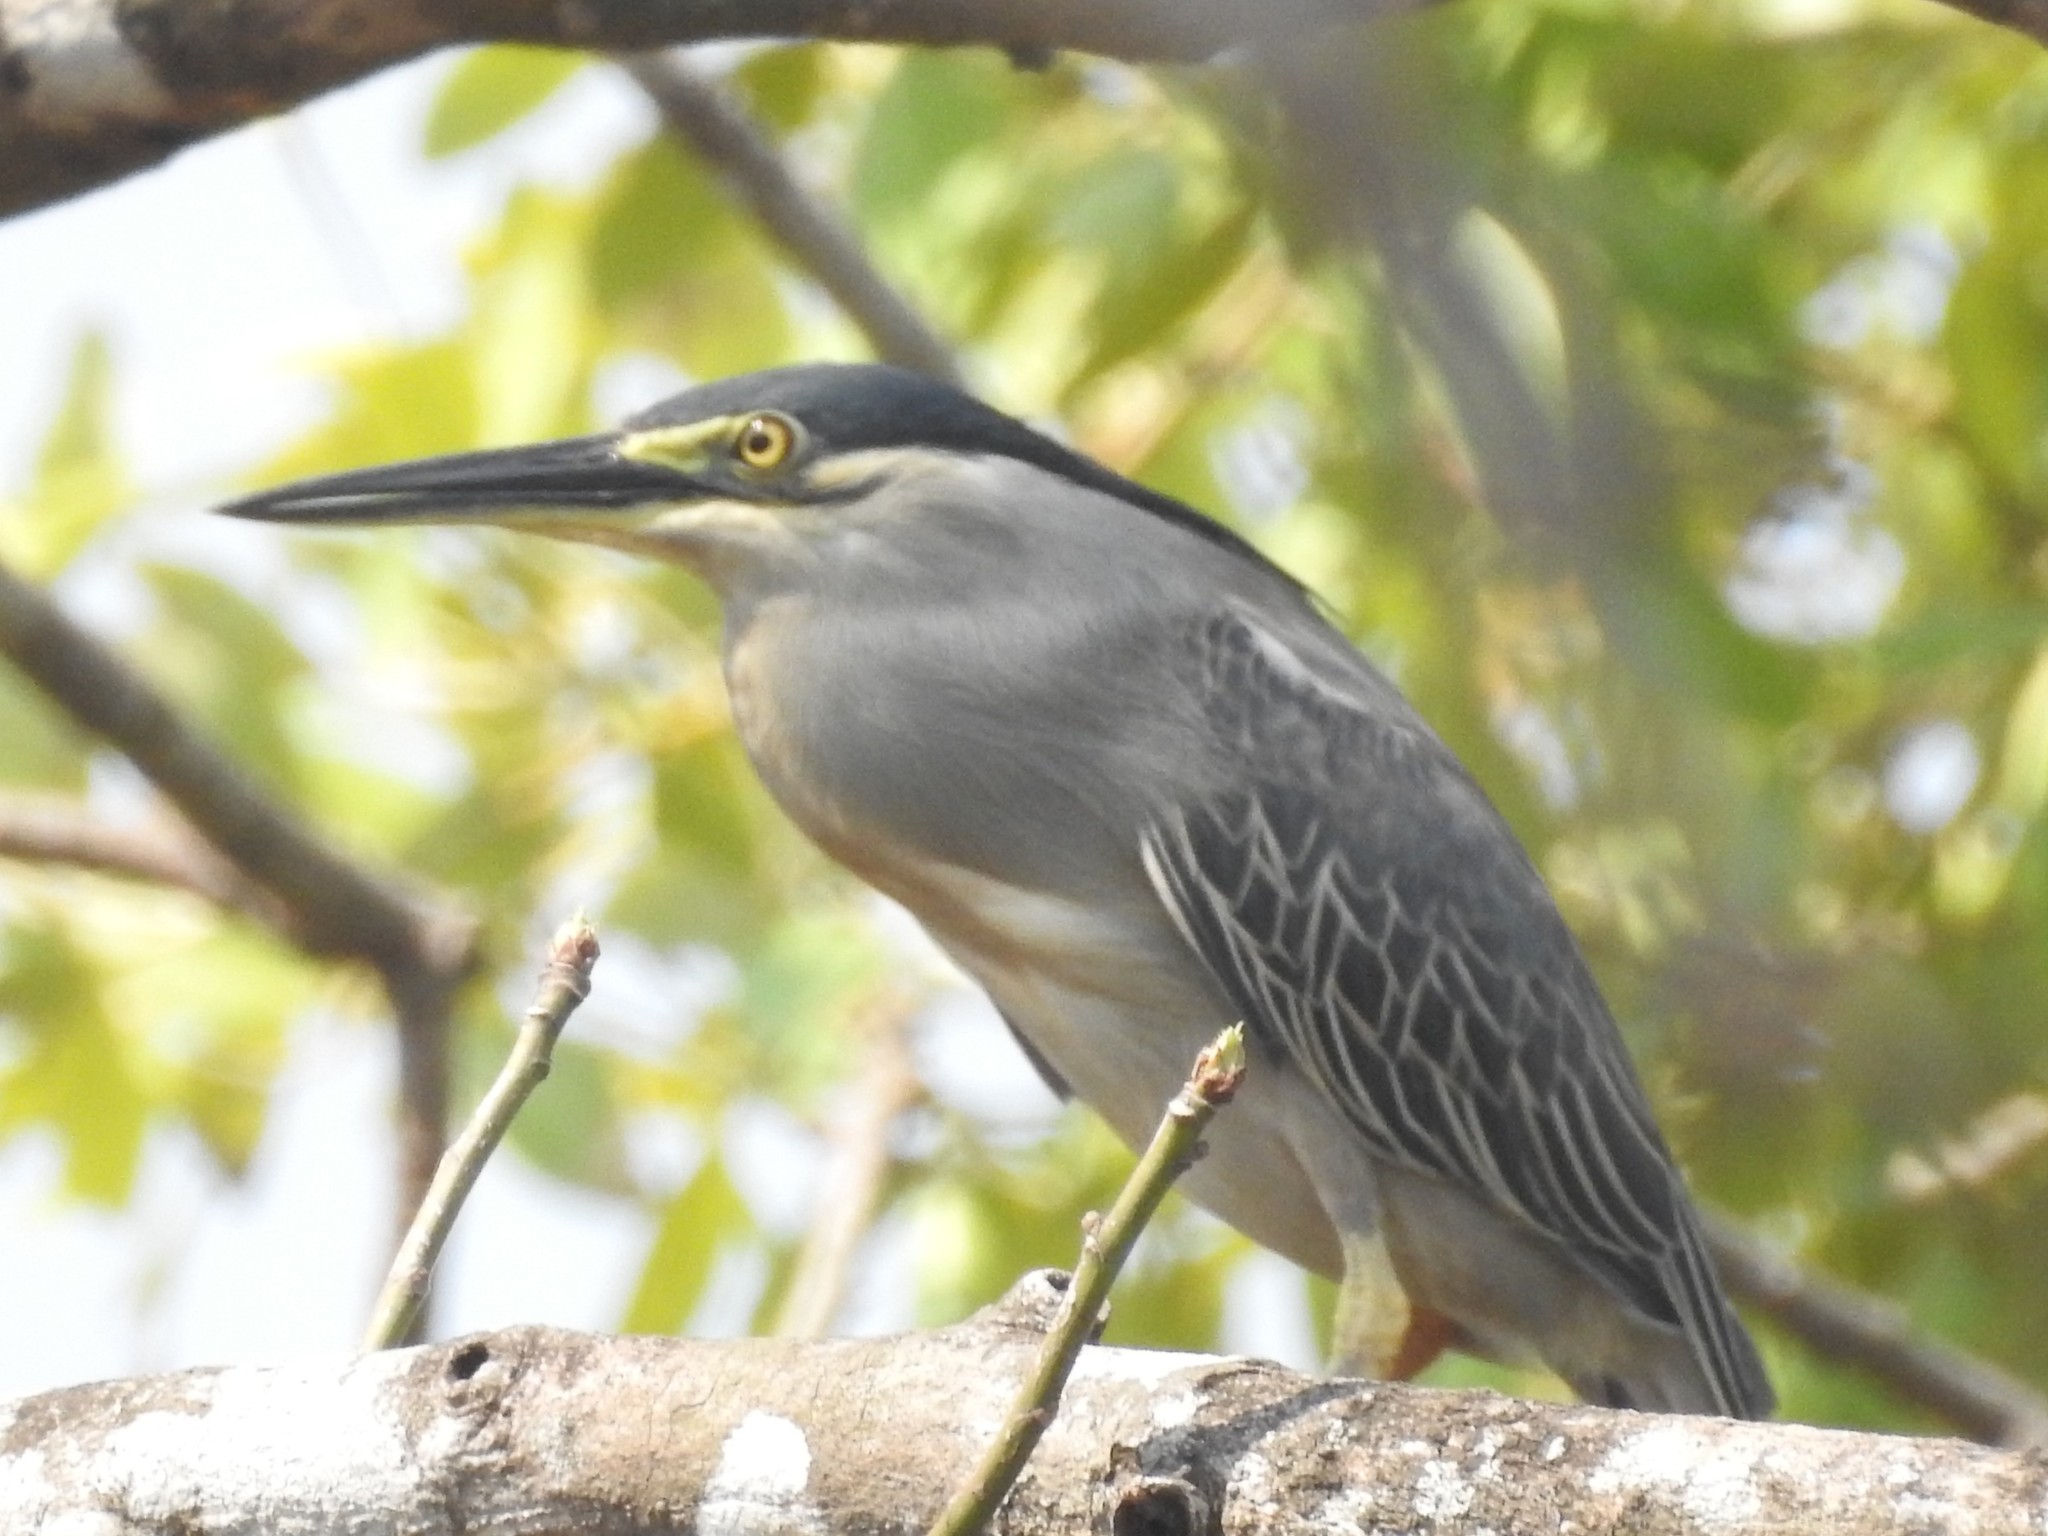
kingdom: Animalia
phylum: Chordata
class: Aves
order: Pelecaniformes
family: Ardeidae
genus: Butorides
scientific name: Butorides striata
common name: Striated heron
